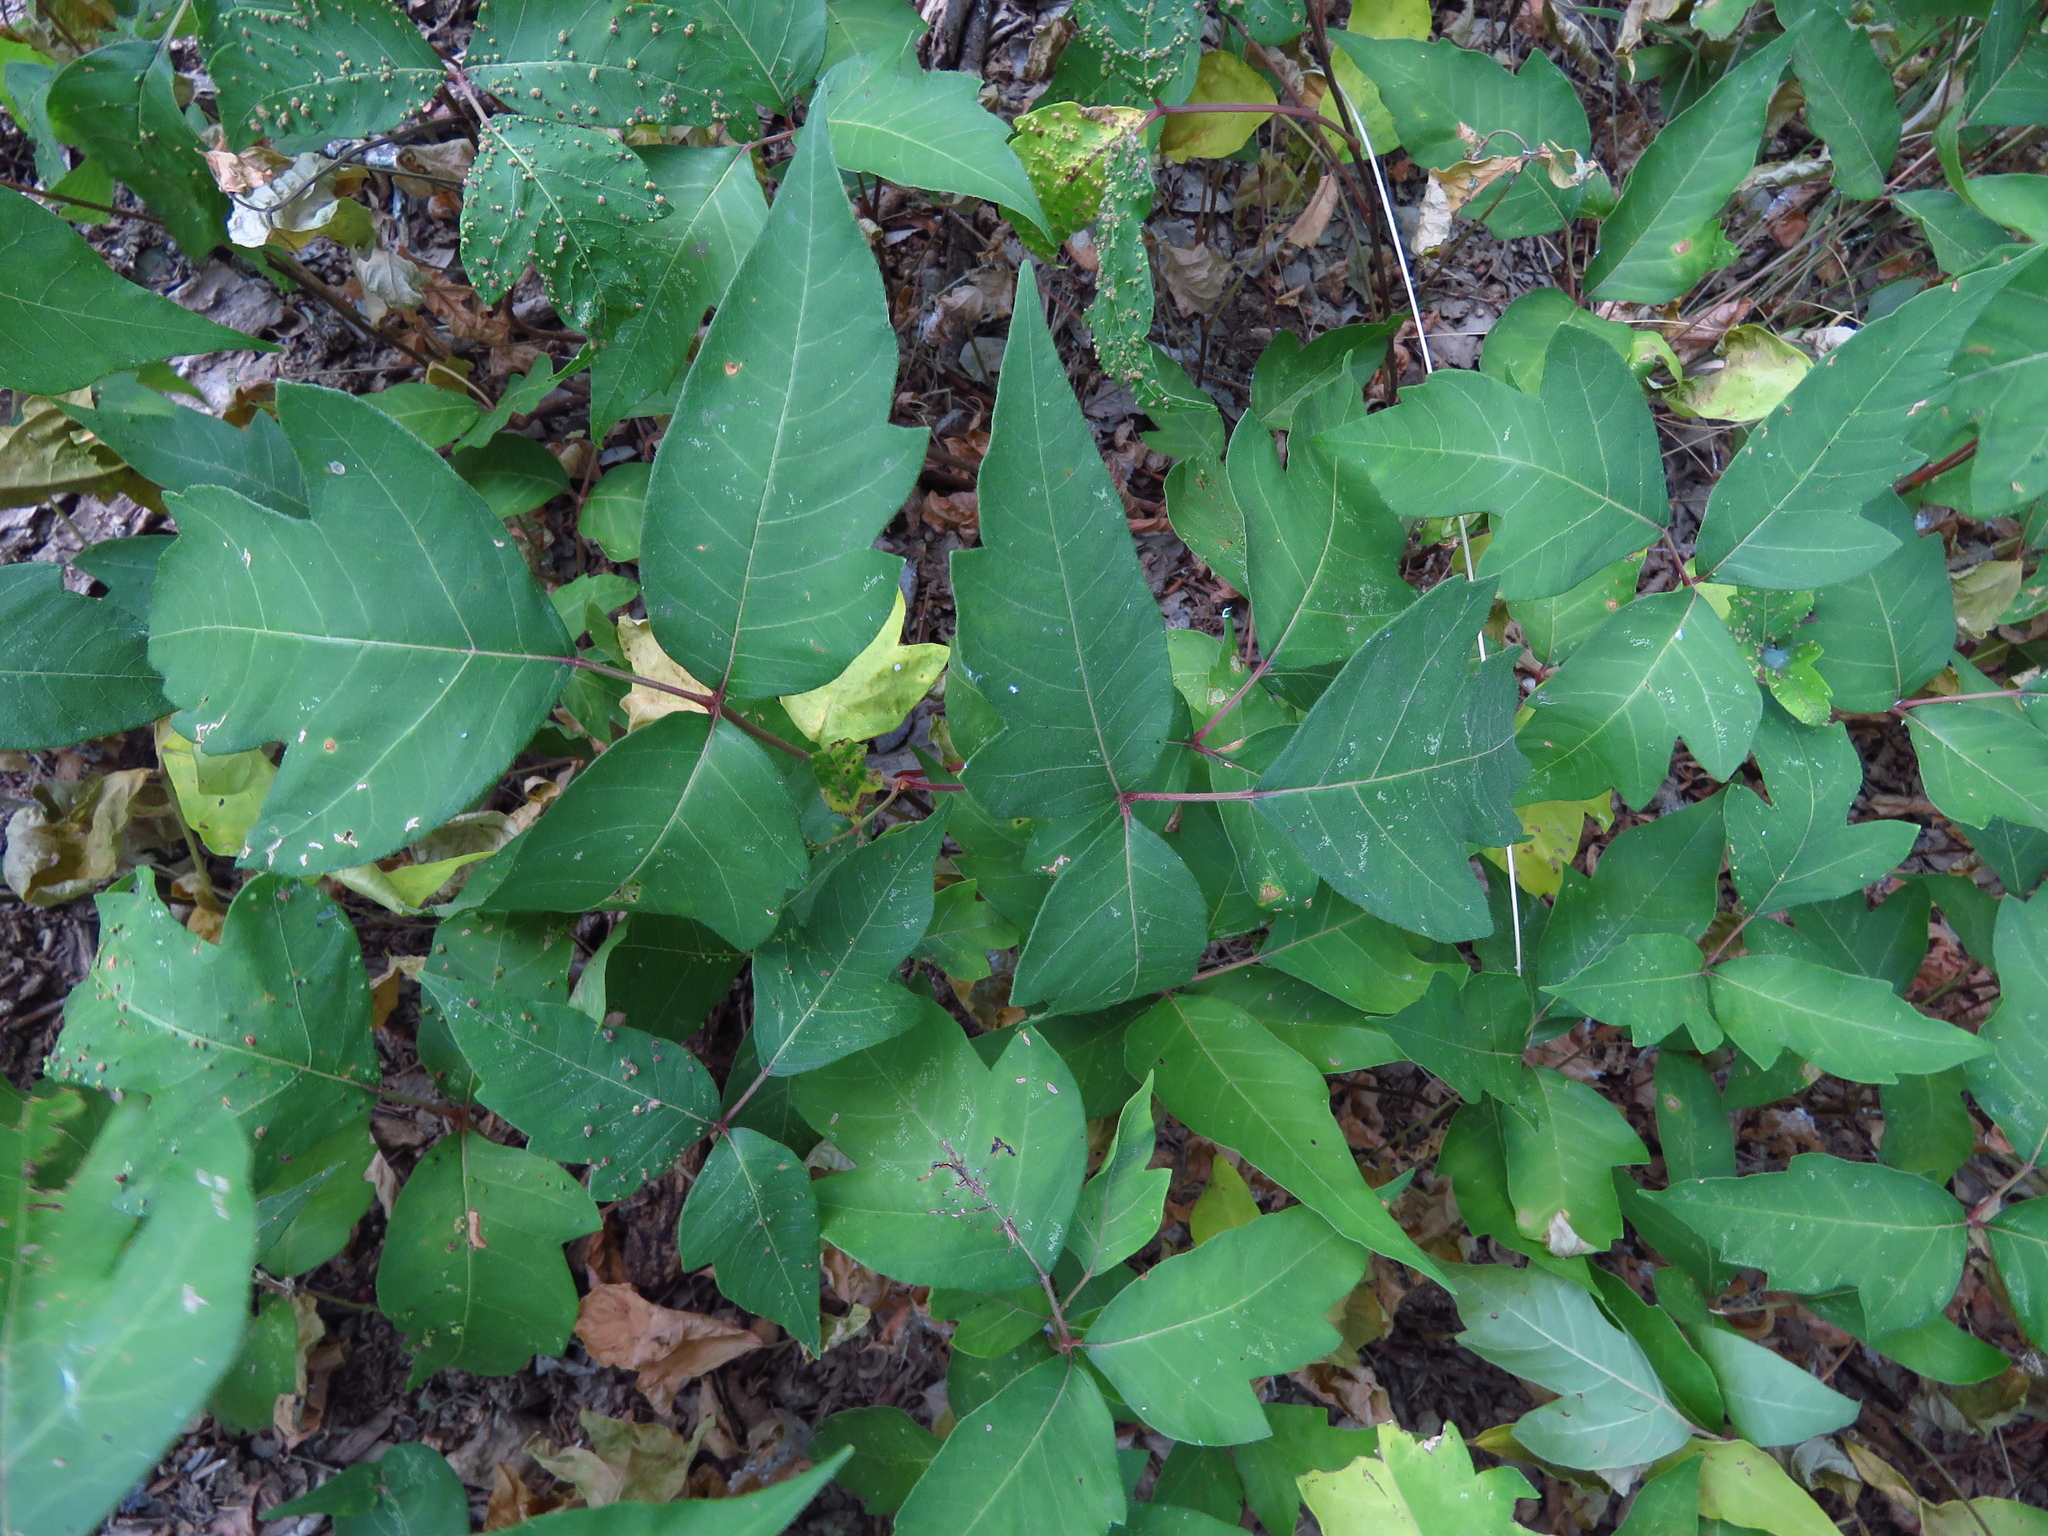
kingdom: Plantae
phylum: Tracheophyta
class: Magnoliopsida
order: Sapindales
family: Anacardiaceae
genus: Toxicodendron
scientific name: Toxicodendron radicans
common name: Poison ivy
